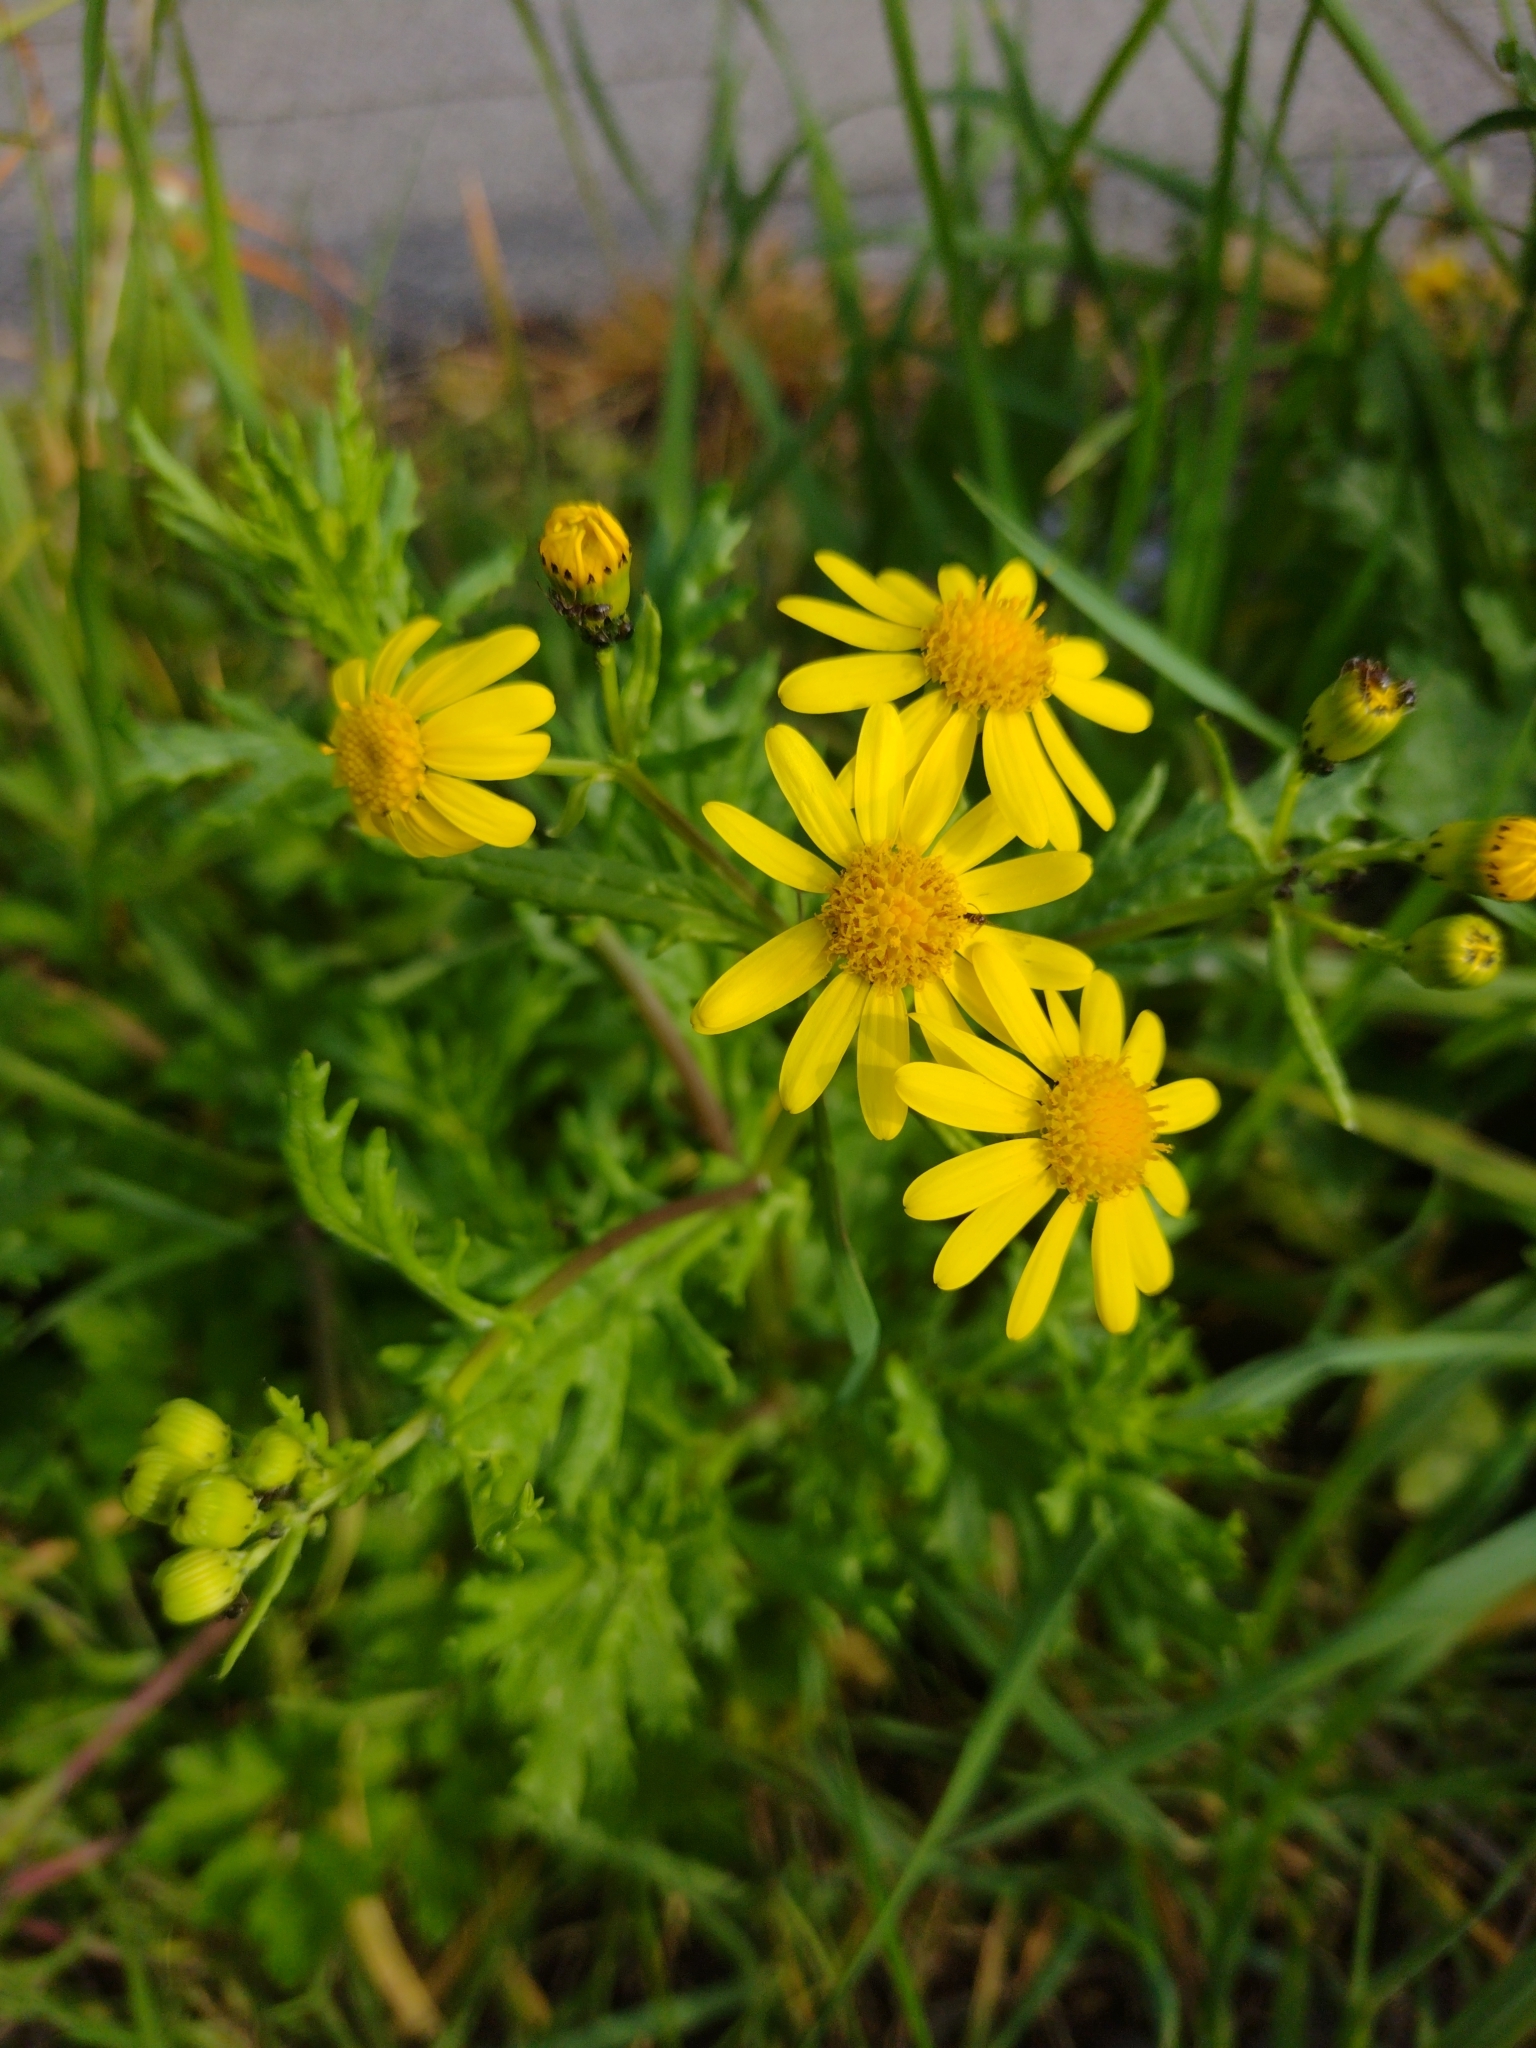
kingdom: Plantae
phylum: Tracheophyta
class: Magnoliopsida
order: Asterales
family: Asteraceae
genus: Senecio
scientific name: Senecio squalidus
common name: Oxford ragwort
